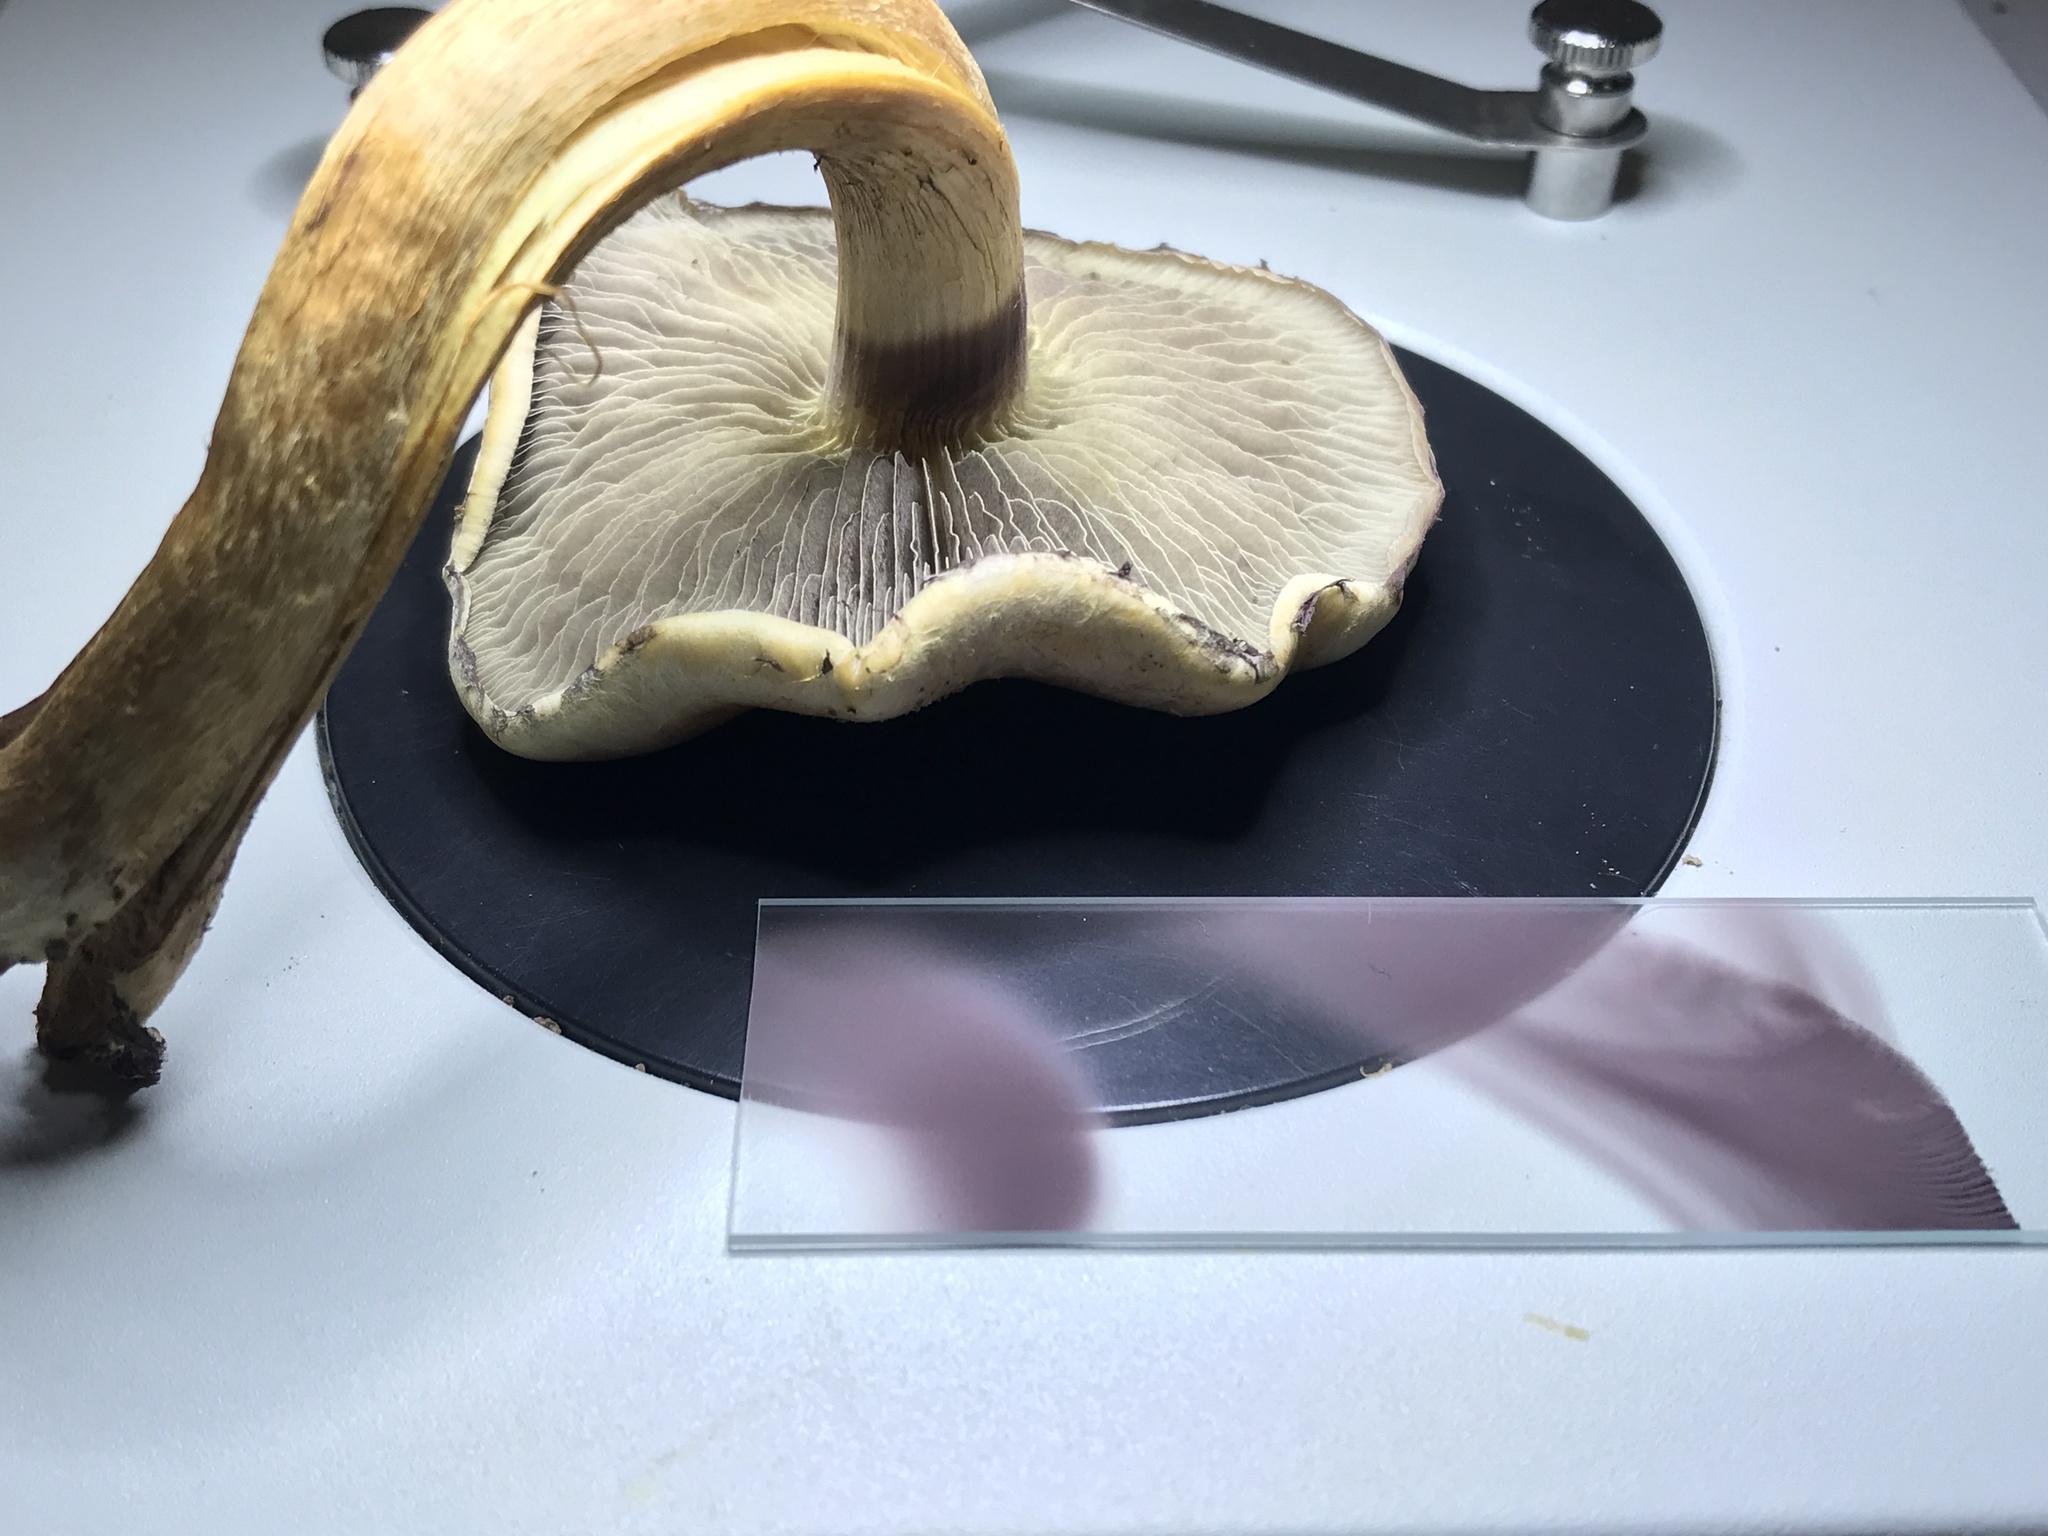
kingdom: Fungi
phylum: Basidiomycota
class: Agaricomycetes
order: Agaricales
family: Strophariaceae
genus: Hypholoma
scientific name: Hypholoma lateritium
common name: Brick caps
